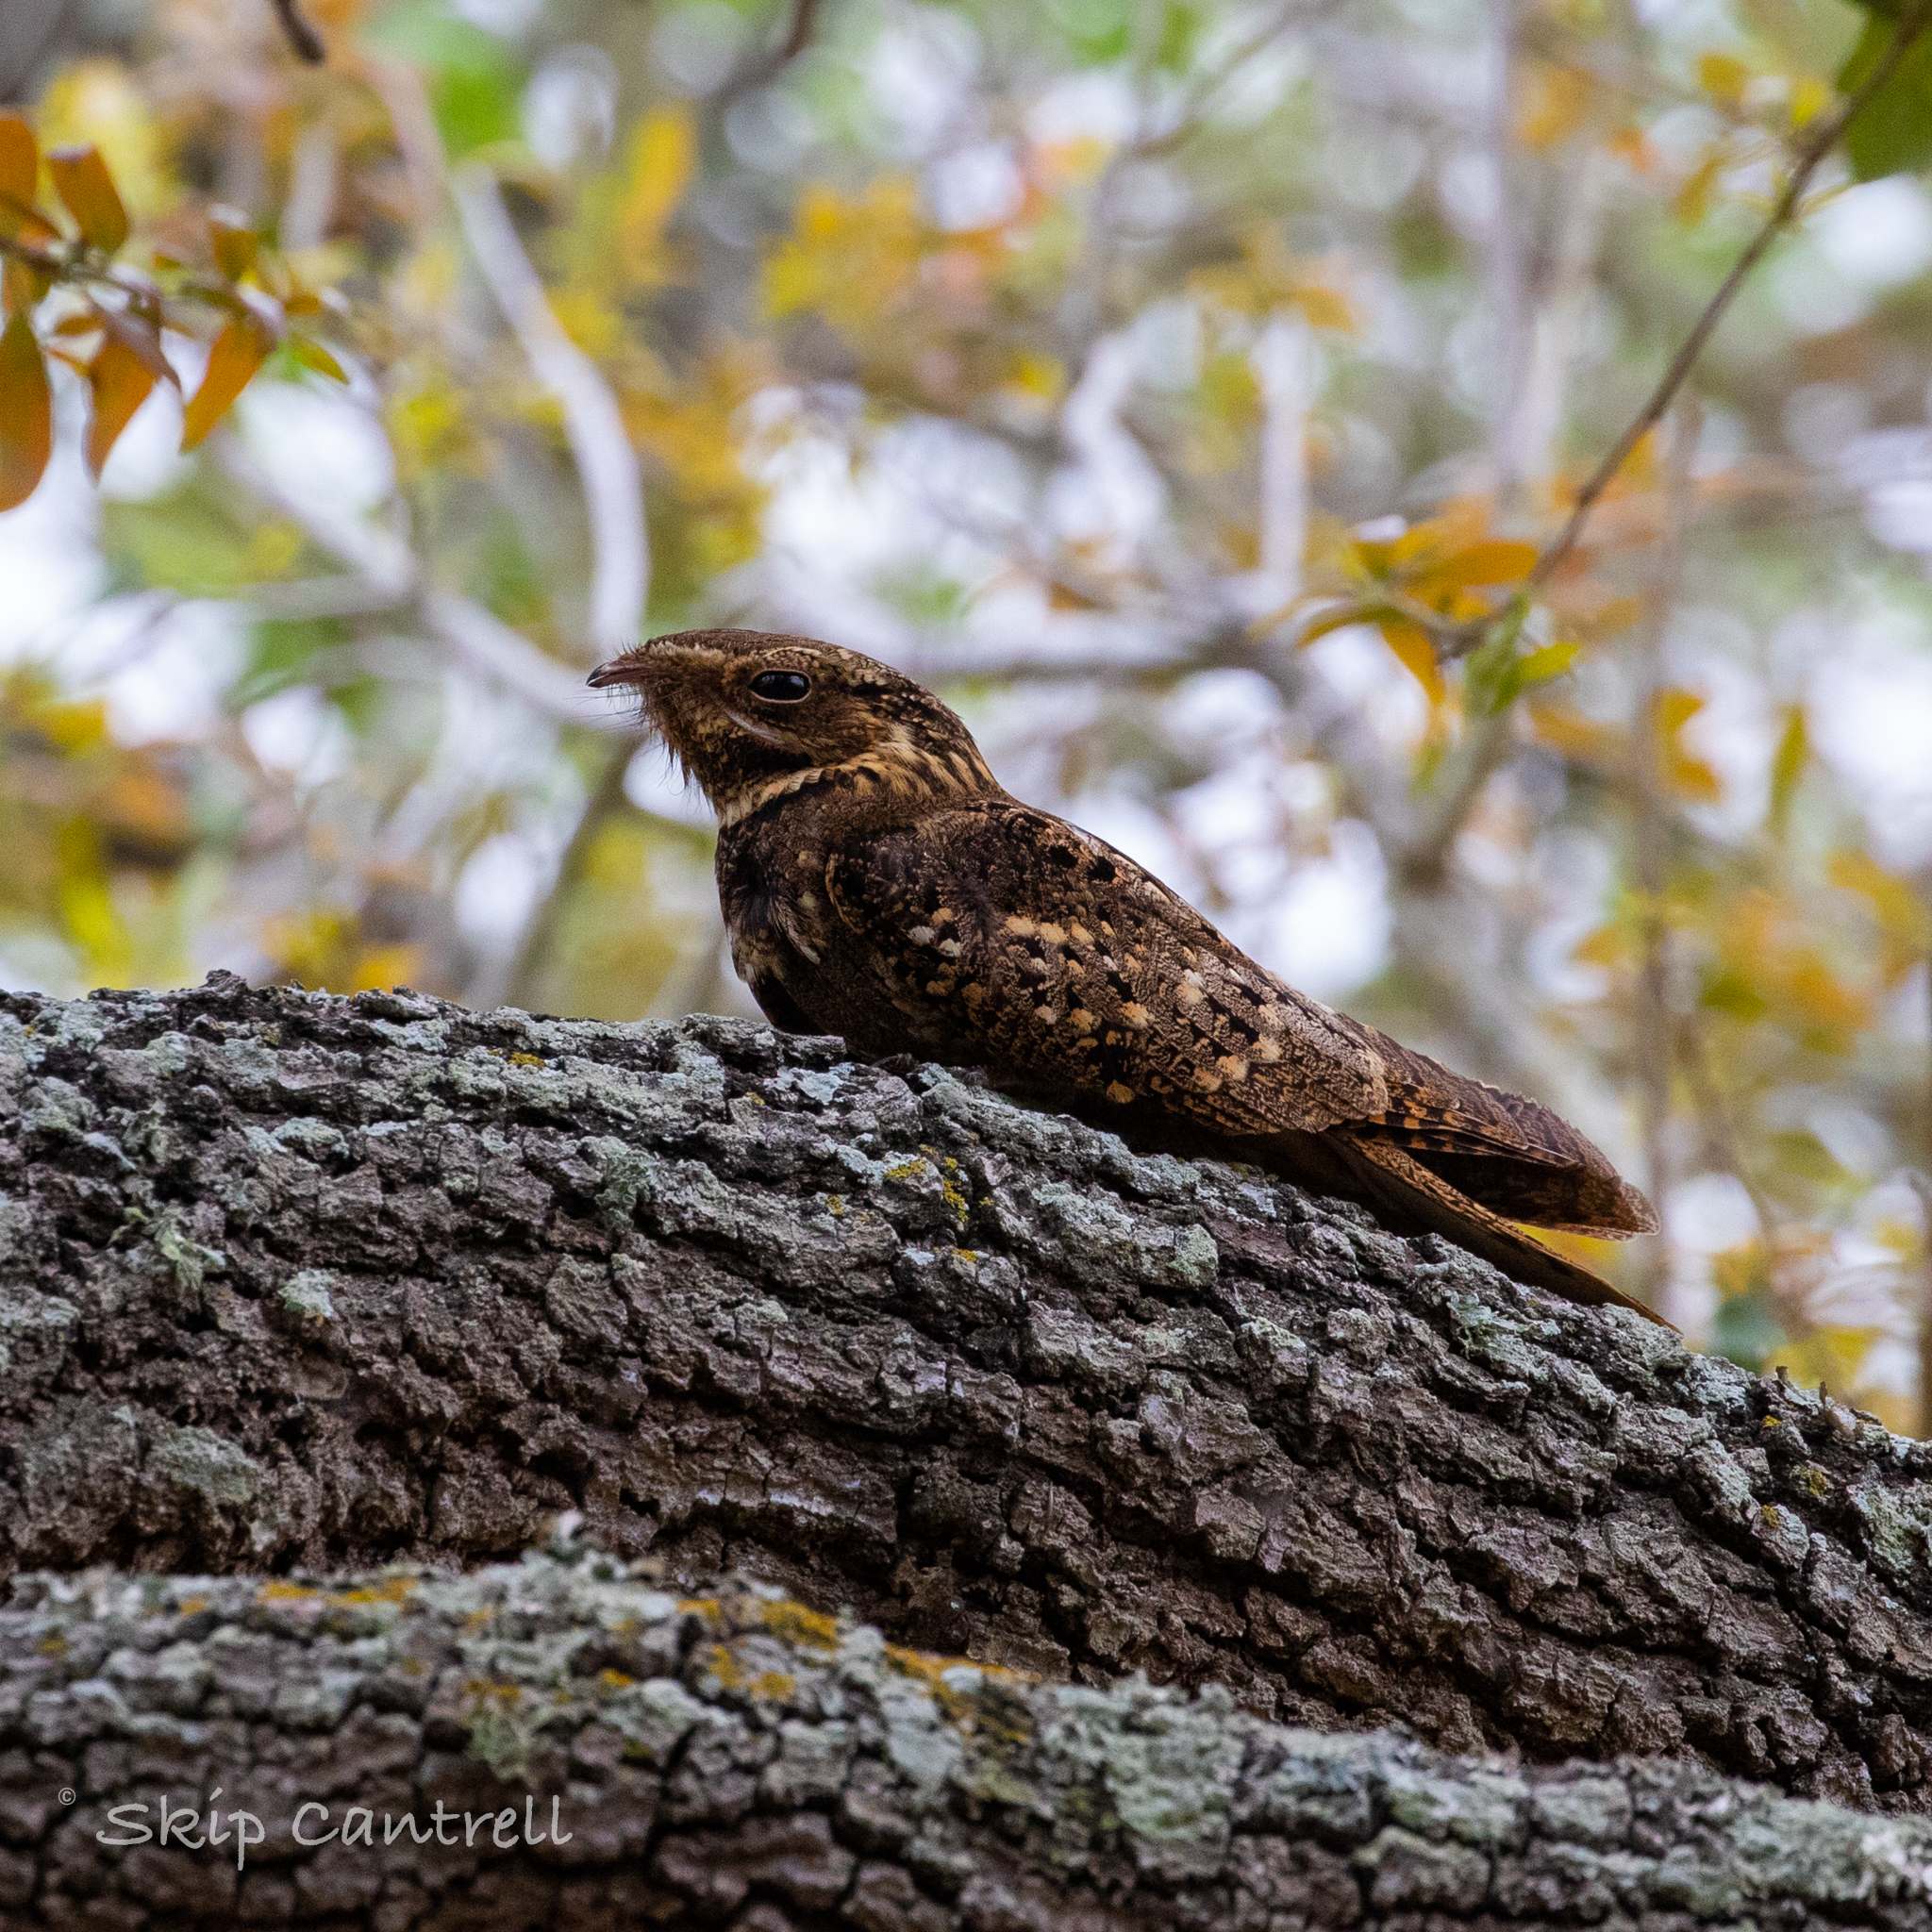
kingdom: Animalia
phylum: Chordata
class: Aves
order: Caprimulgiformes
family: Caprimulgidae
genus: Antrostomus
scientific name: Antrostomus carolinensis
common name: Chuck-will's-widow
